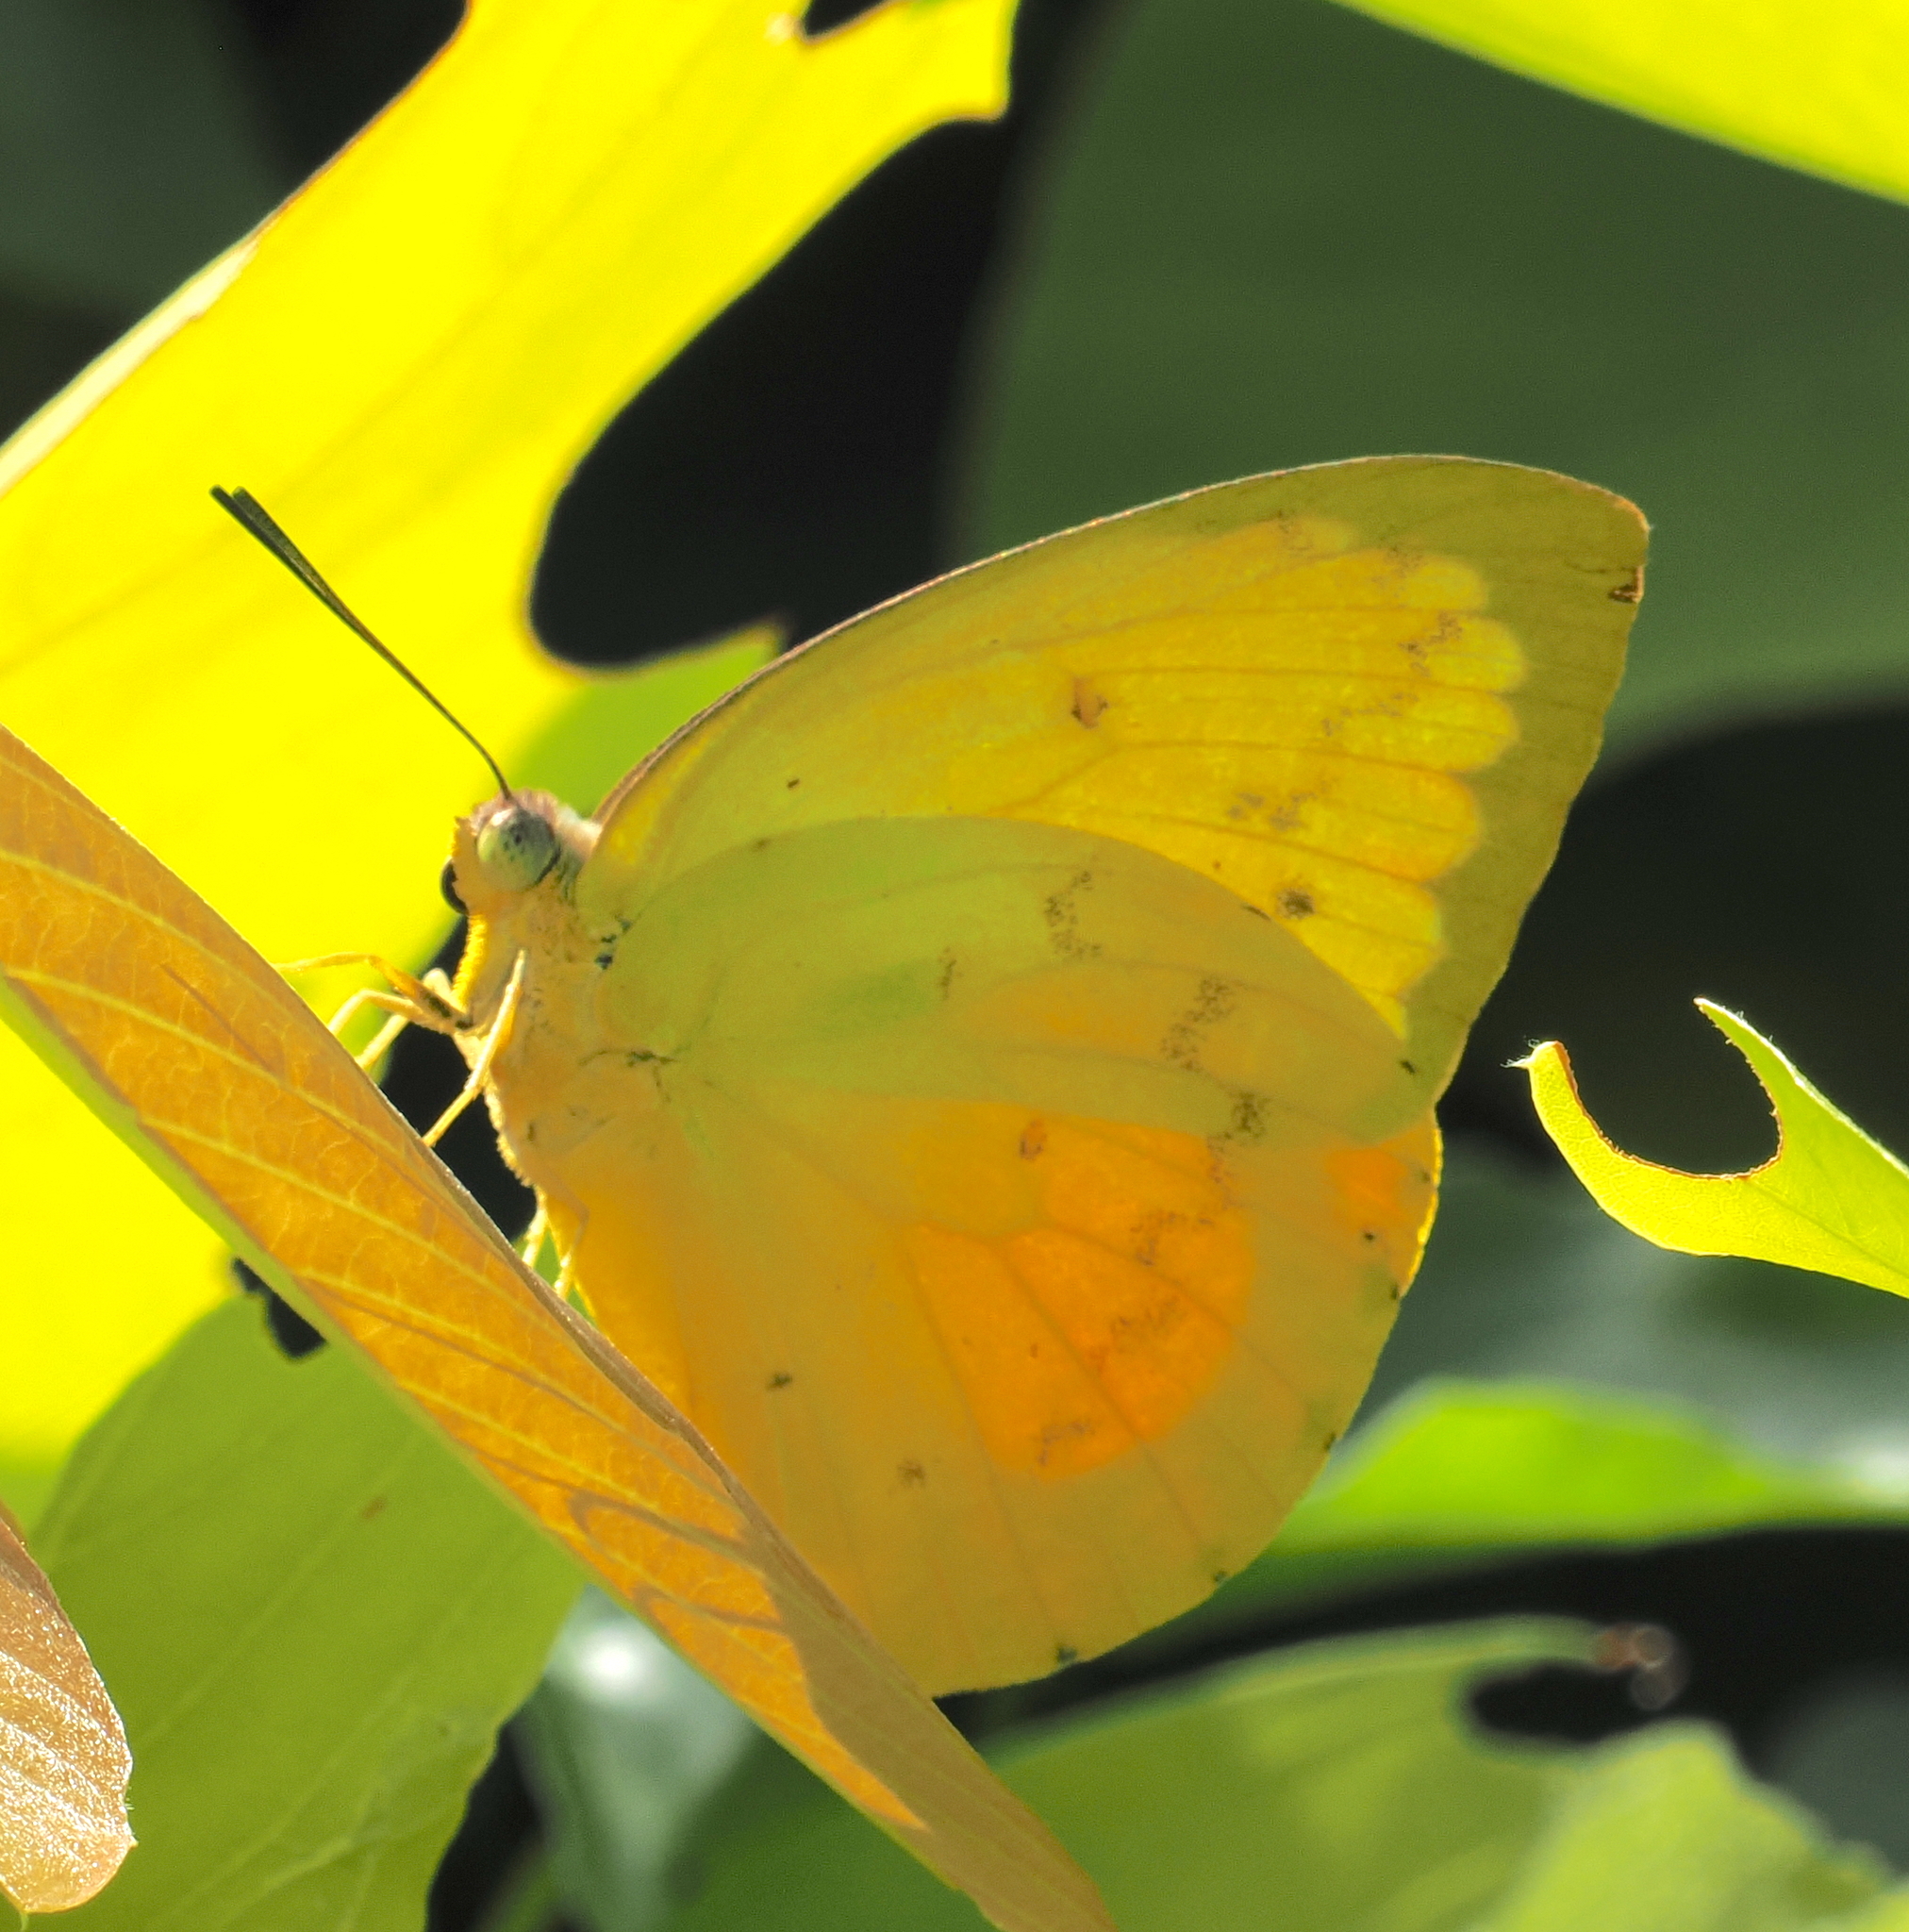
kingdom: Animalia
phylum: Arthropoda
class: Insecta
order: Lepidoptera
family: Pieridae
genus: Catopsilia
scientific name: Catopsilia scylla
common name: Orange emigrant
